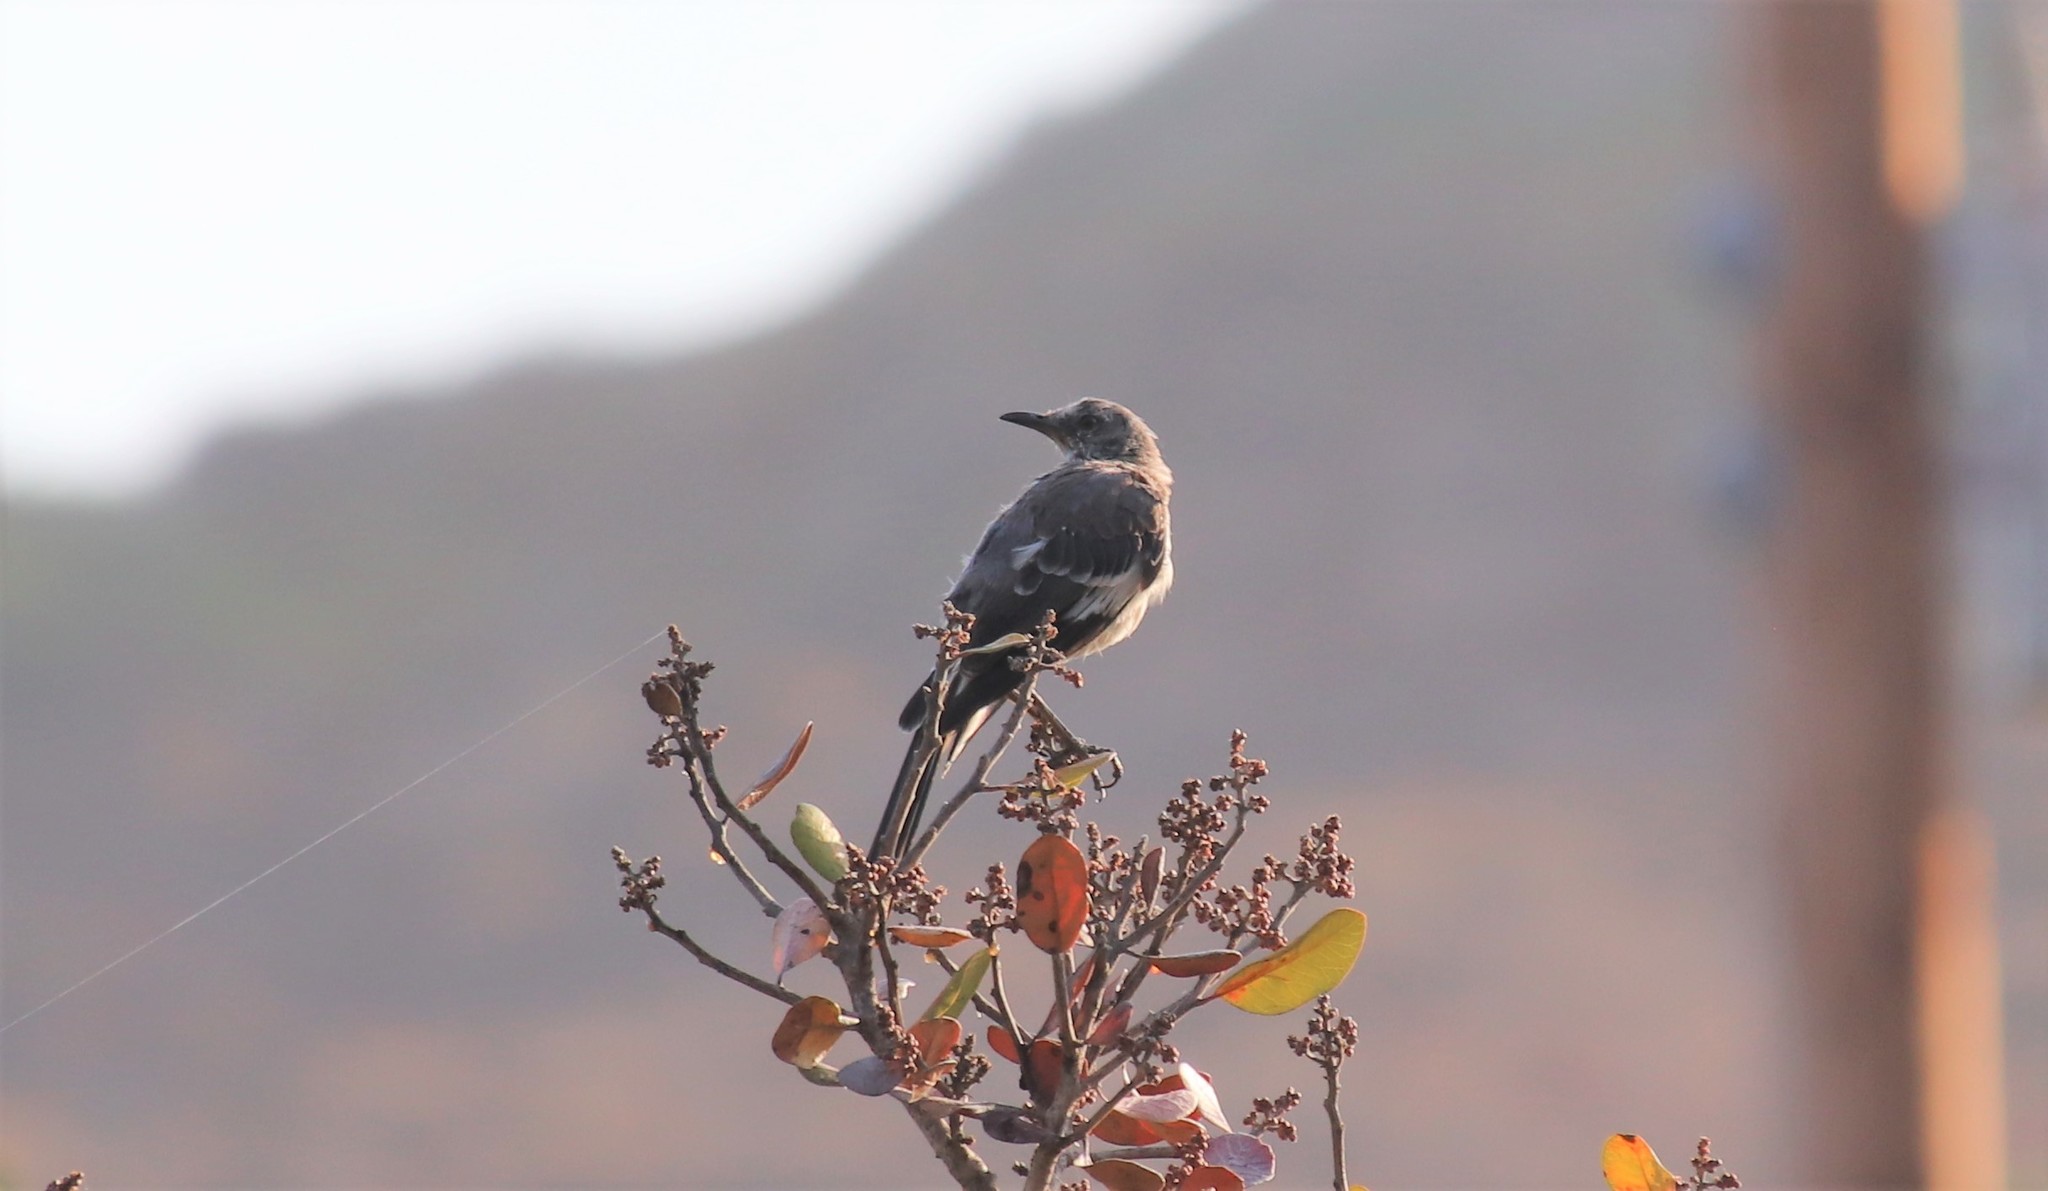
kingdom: Animalia
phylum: Chordata
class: Aves
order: Passeriformes
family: Mimidae
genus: Mimus
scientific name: Mimus polyglottos
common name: Northern mockingbird
